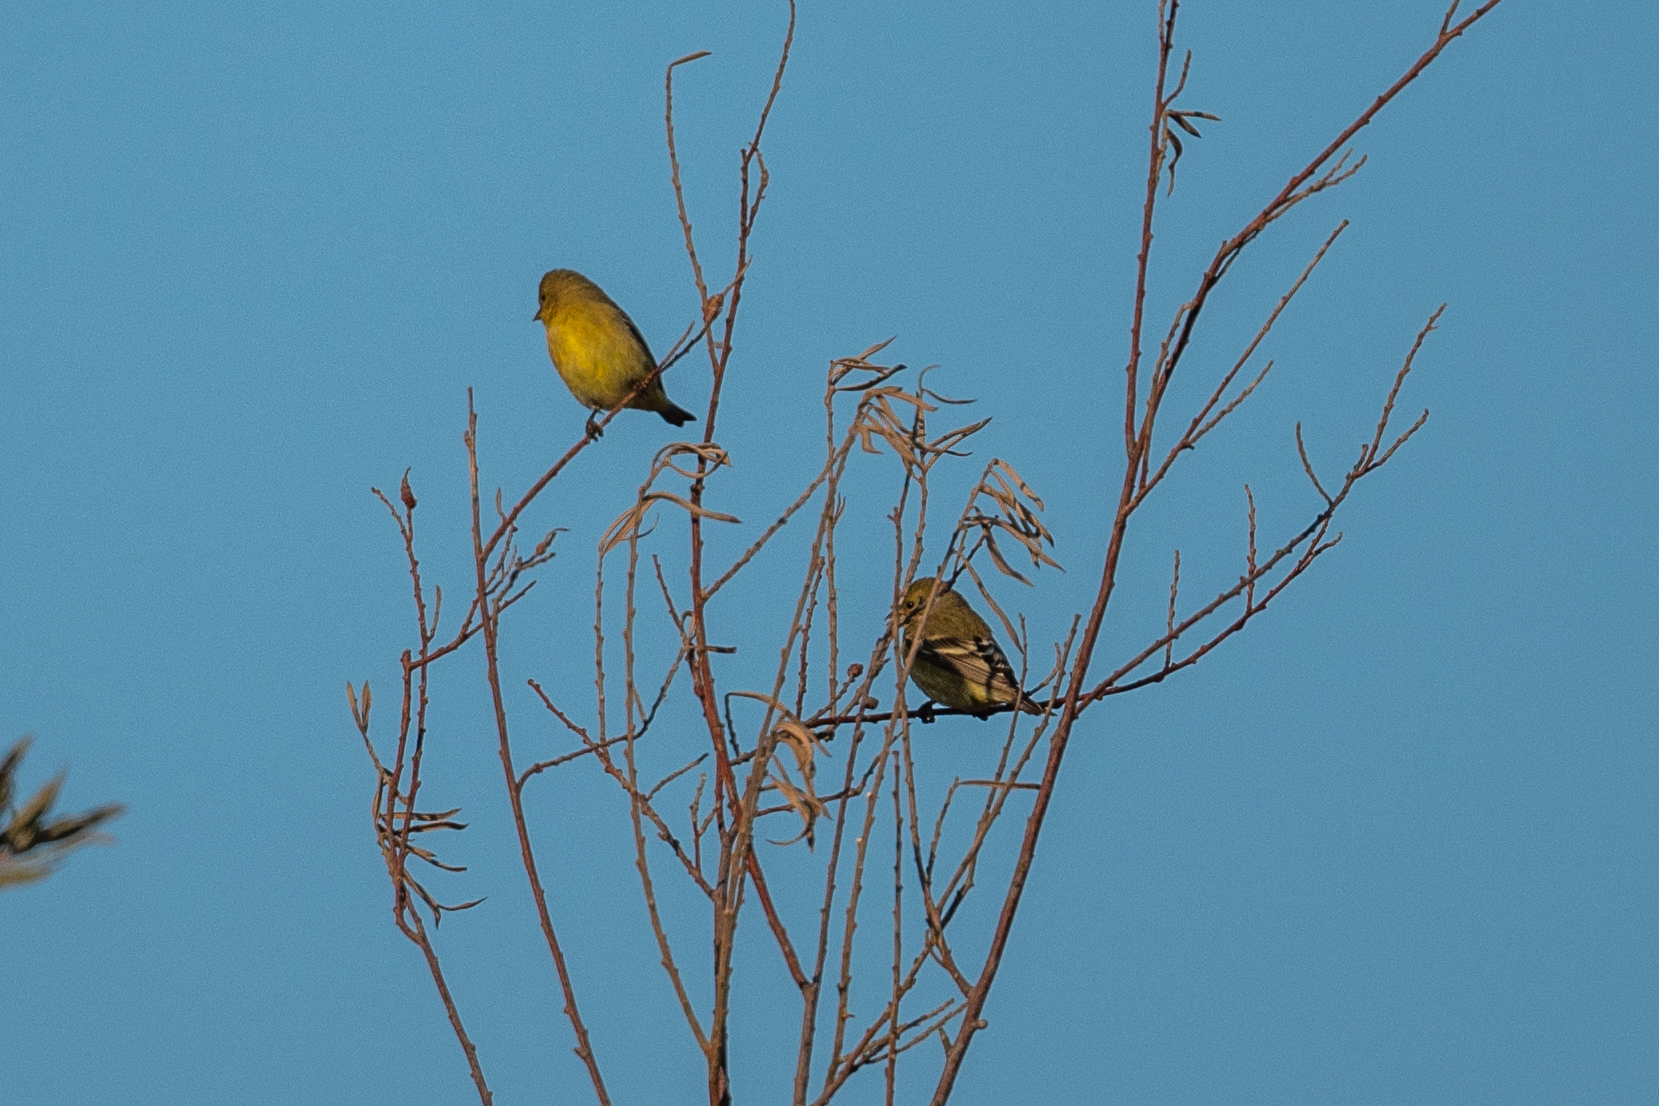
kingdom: Animalia
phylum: Chordata
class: Aves
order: Passeriformes
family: Fringillidae
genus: Spinus
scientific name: Spinus psaltria
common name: Lesser goldfinch
